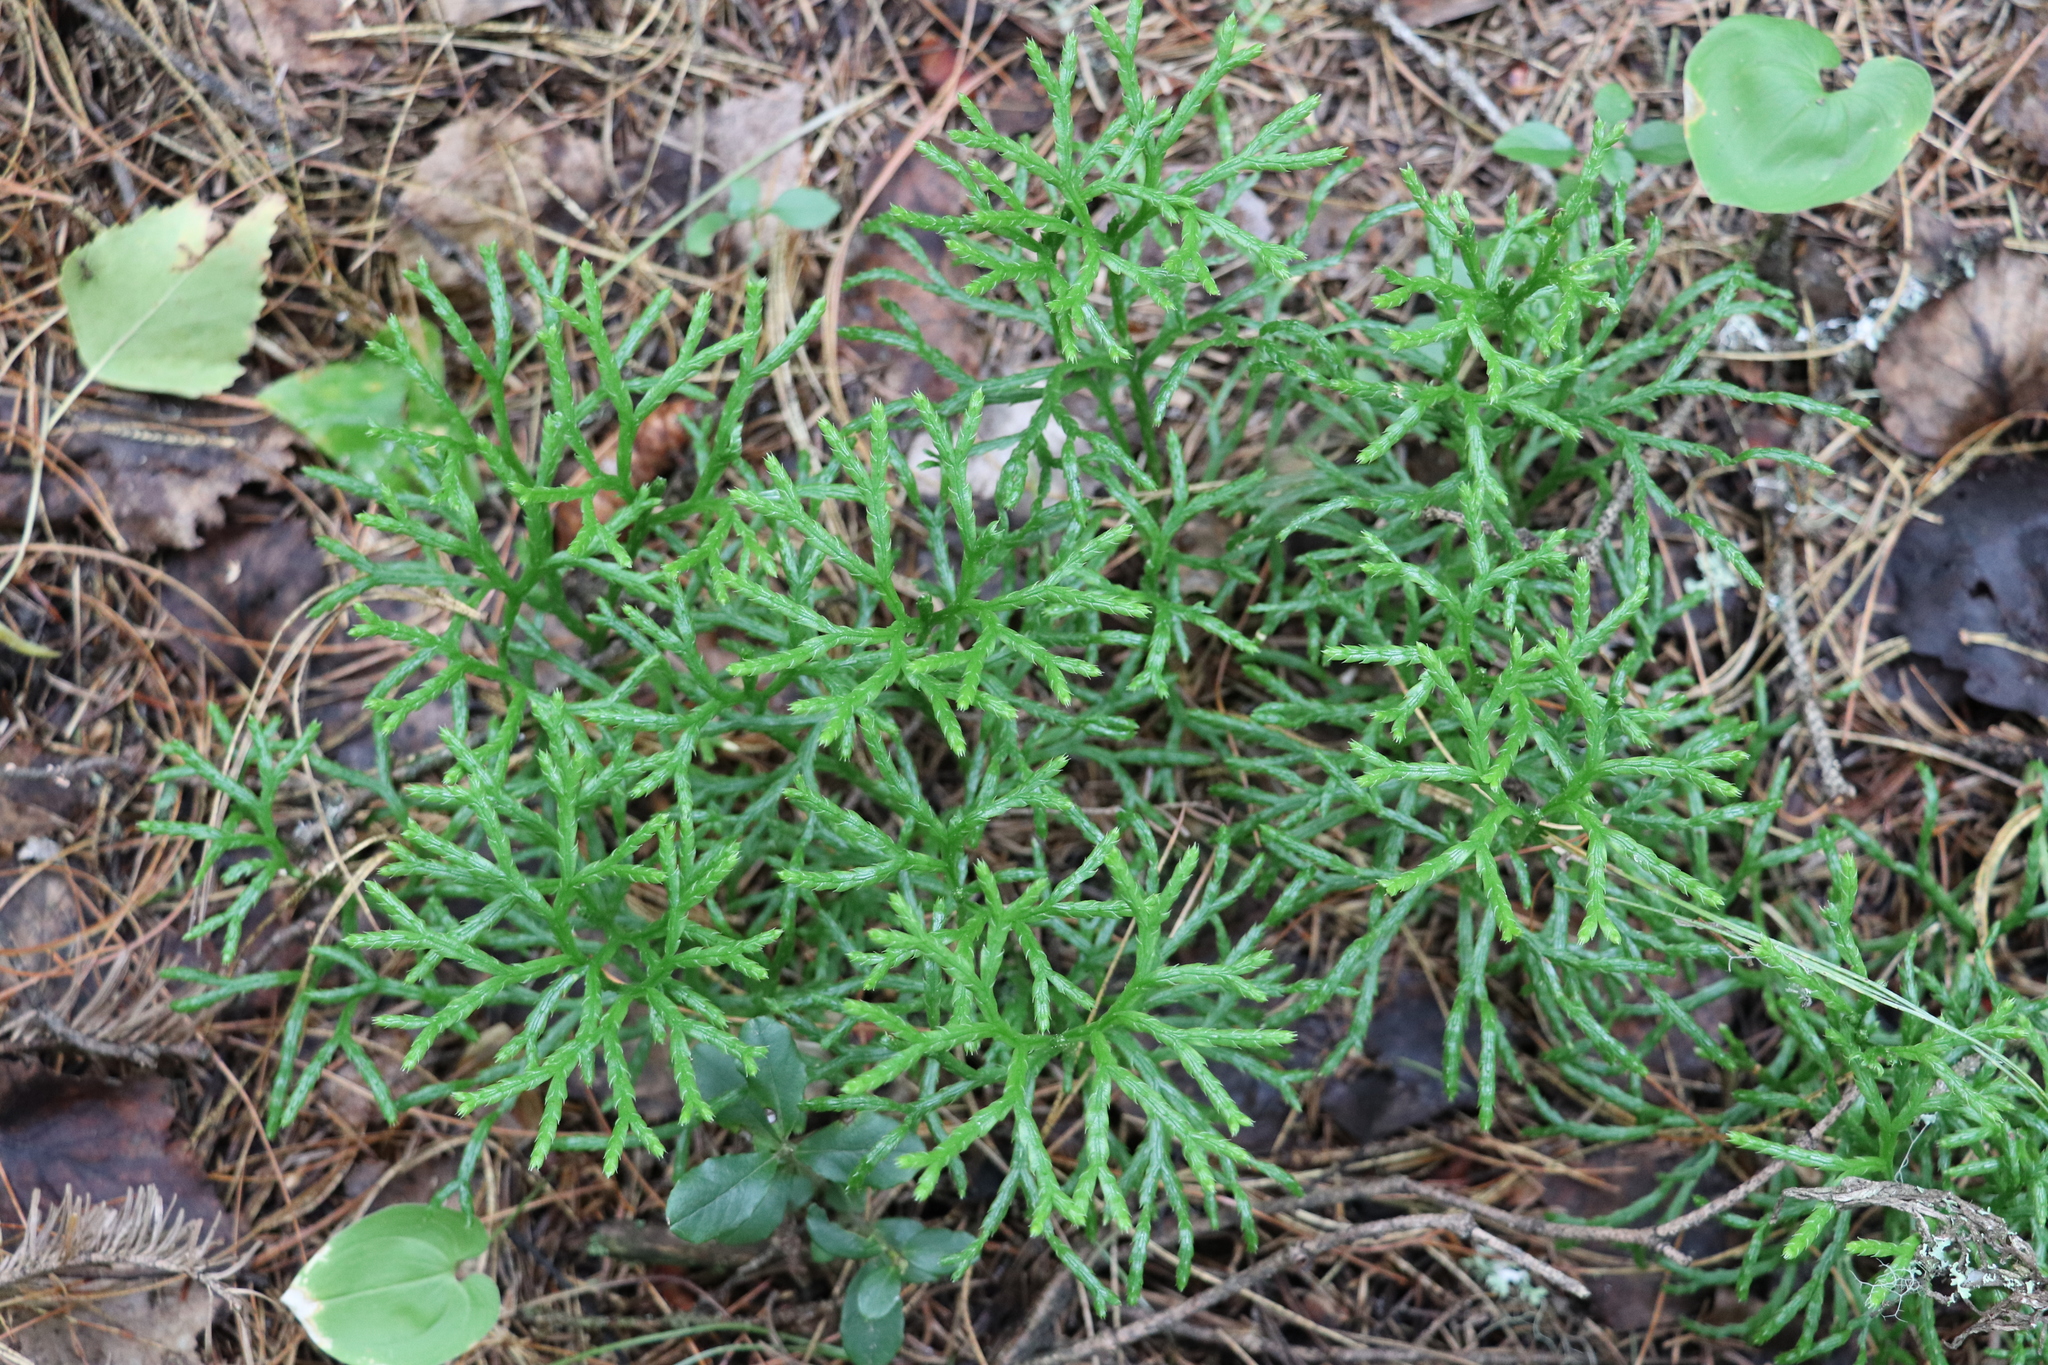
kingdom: Plantae
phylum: Tracheophyta
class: Lycopodiopsida
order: Lycopodiales
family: Lycopodiaceae
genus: Diphasiastrum
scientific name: Diphasiastrum complanatum
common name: Northern running-pine
